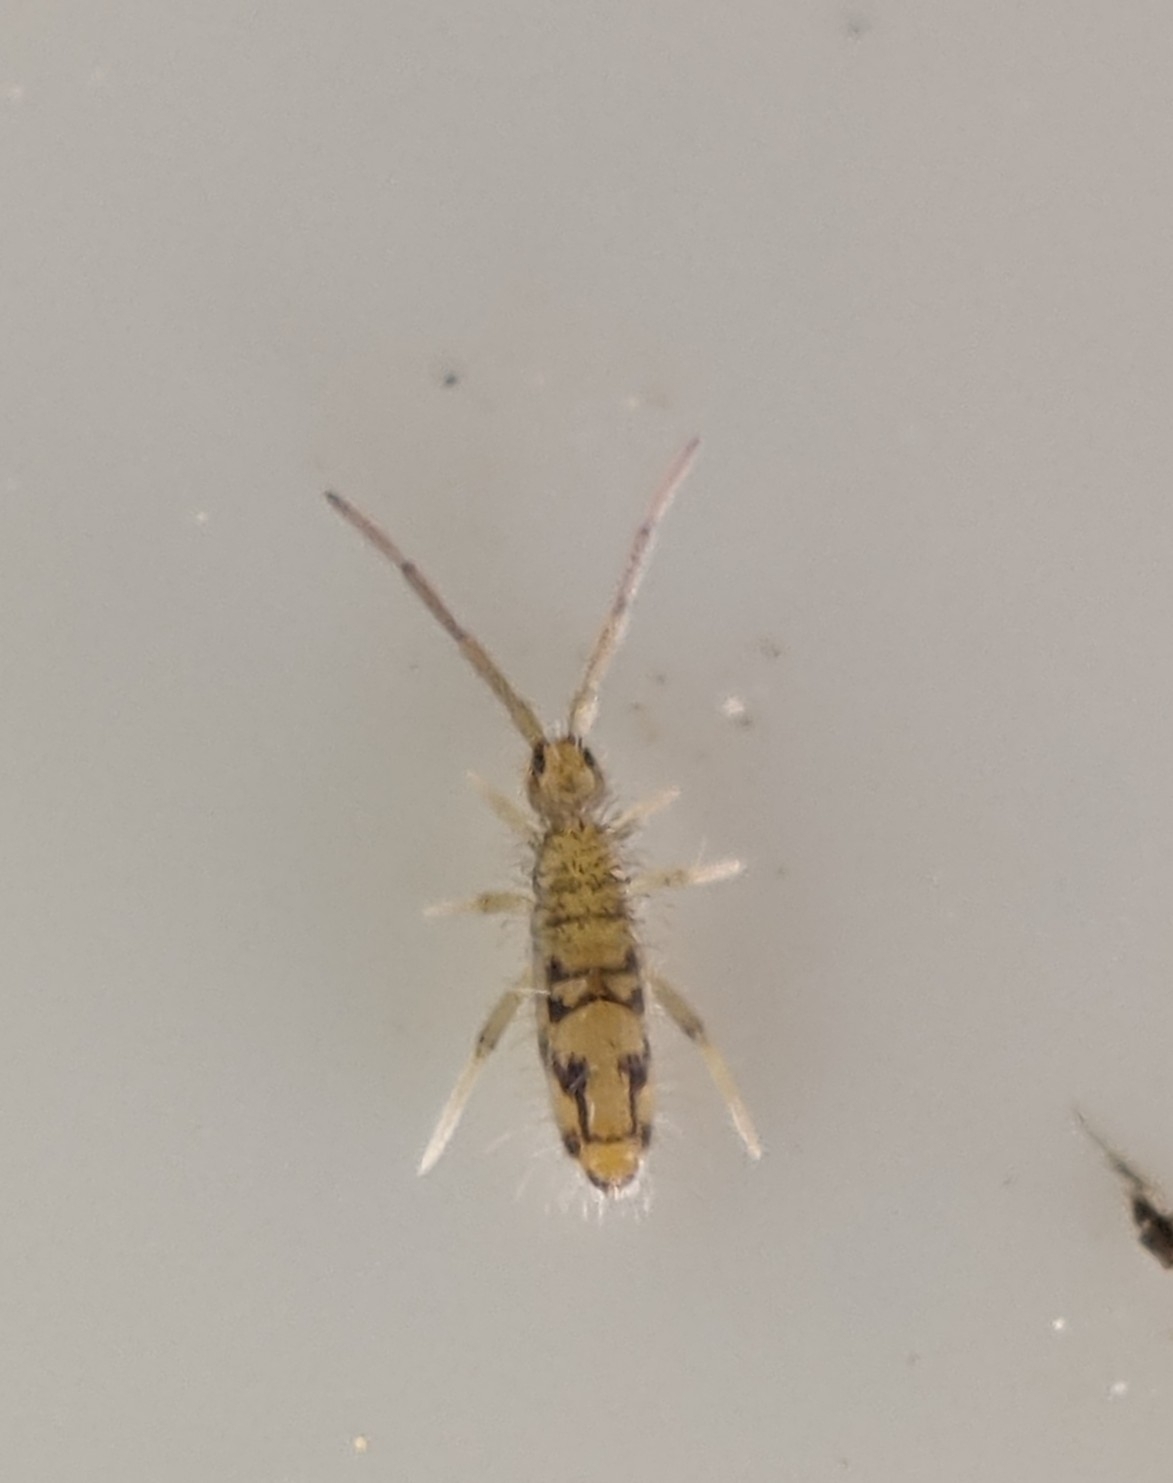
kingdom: Animalia
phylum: Arthropoda
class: Collembola
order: Entomobryomorpha
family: Entomobryidae
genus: Entomobrya
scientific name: Entomobrya nivalis
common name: Cosmopolitan springtail
